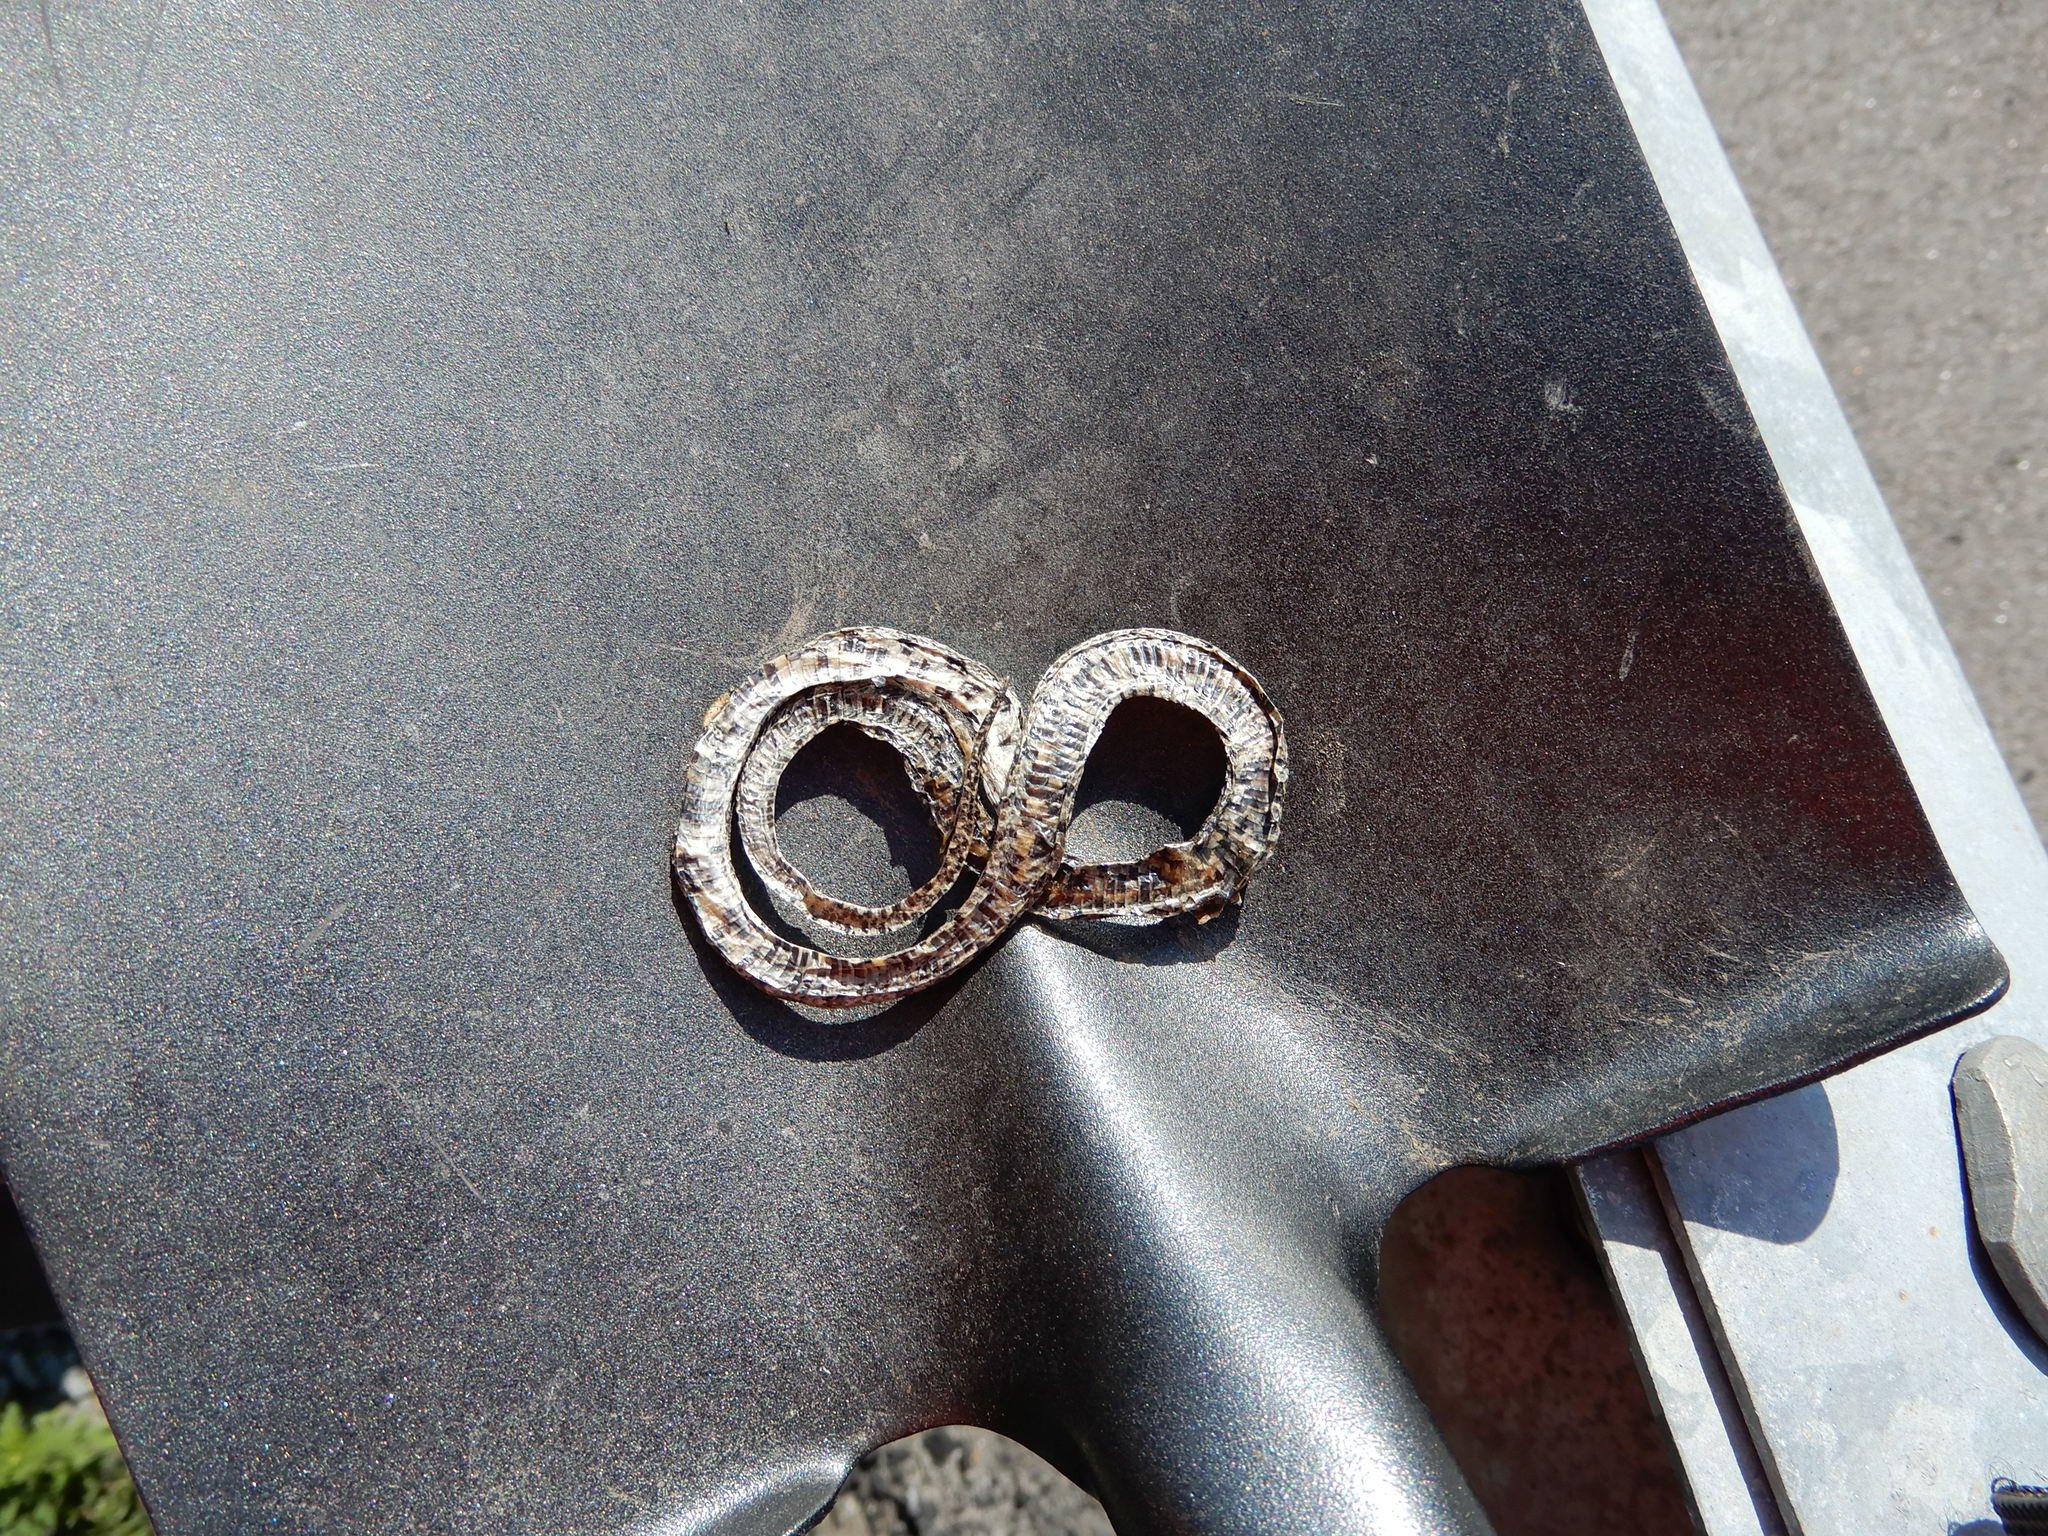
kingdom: Animalia
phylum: Chordata
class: Squamata
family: Colubridae
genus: Lampropeltis
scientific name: Lampropeltis triangulum
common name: Eastern milksnake
